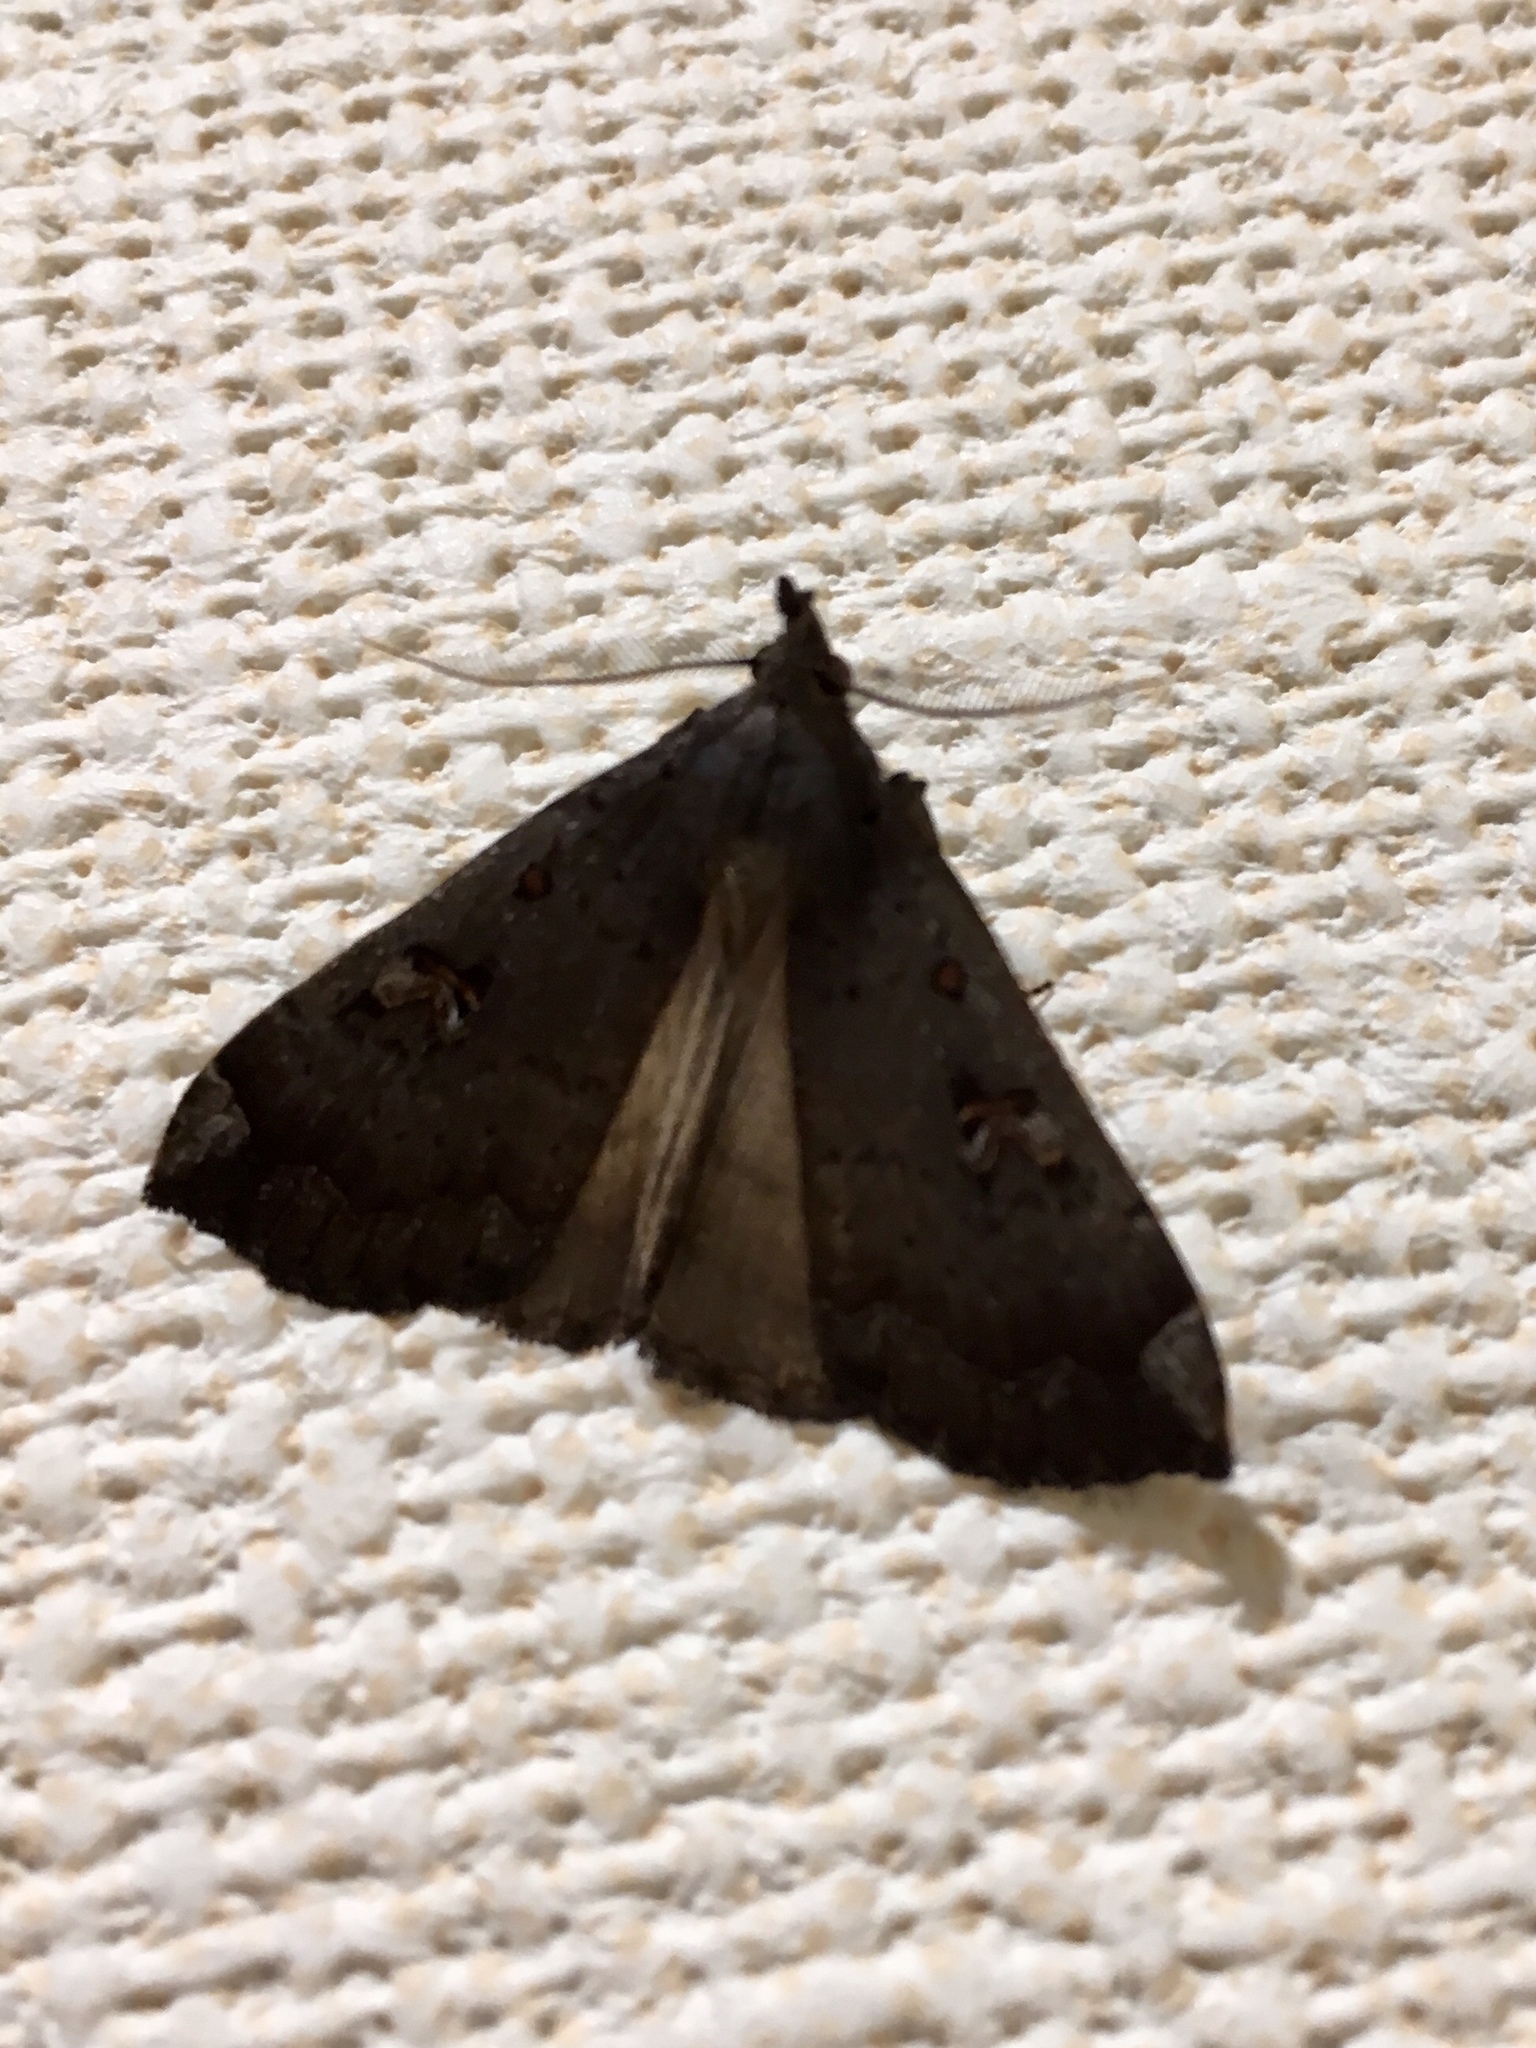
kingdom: Animalia
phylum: Arthropoda
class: Insecta
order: Lepidoptera
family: Erebidae
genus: Rhapsa
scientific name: Rhapsa scotosialis
